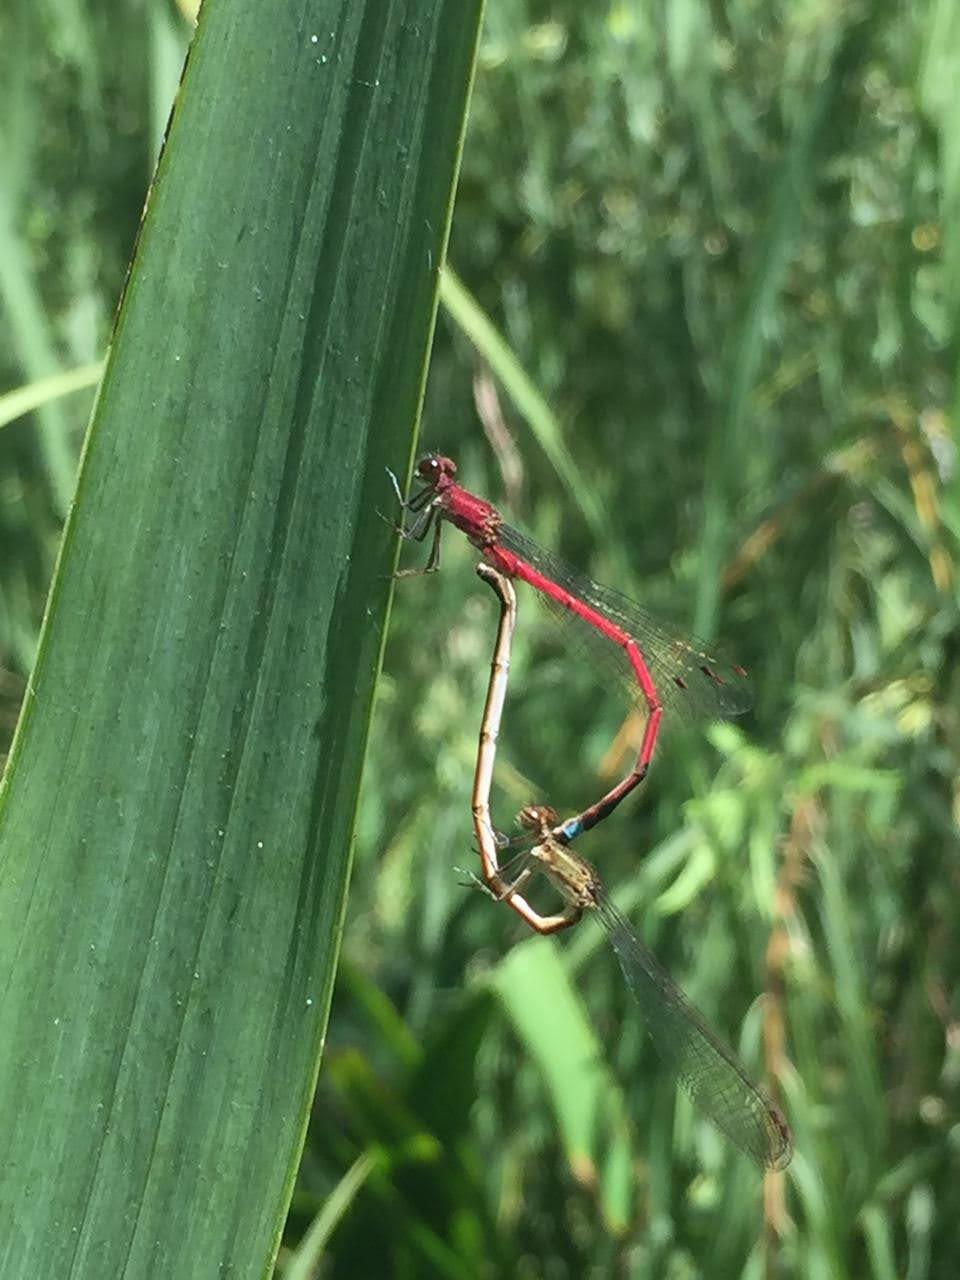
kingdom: Animalia
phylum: Arthropoda
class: Insecta
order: Odonata
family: Coenagrionidae
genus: Oxyagrion
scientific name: Oxyagrion terminale
